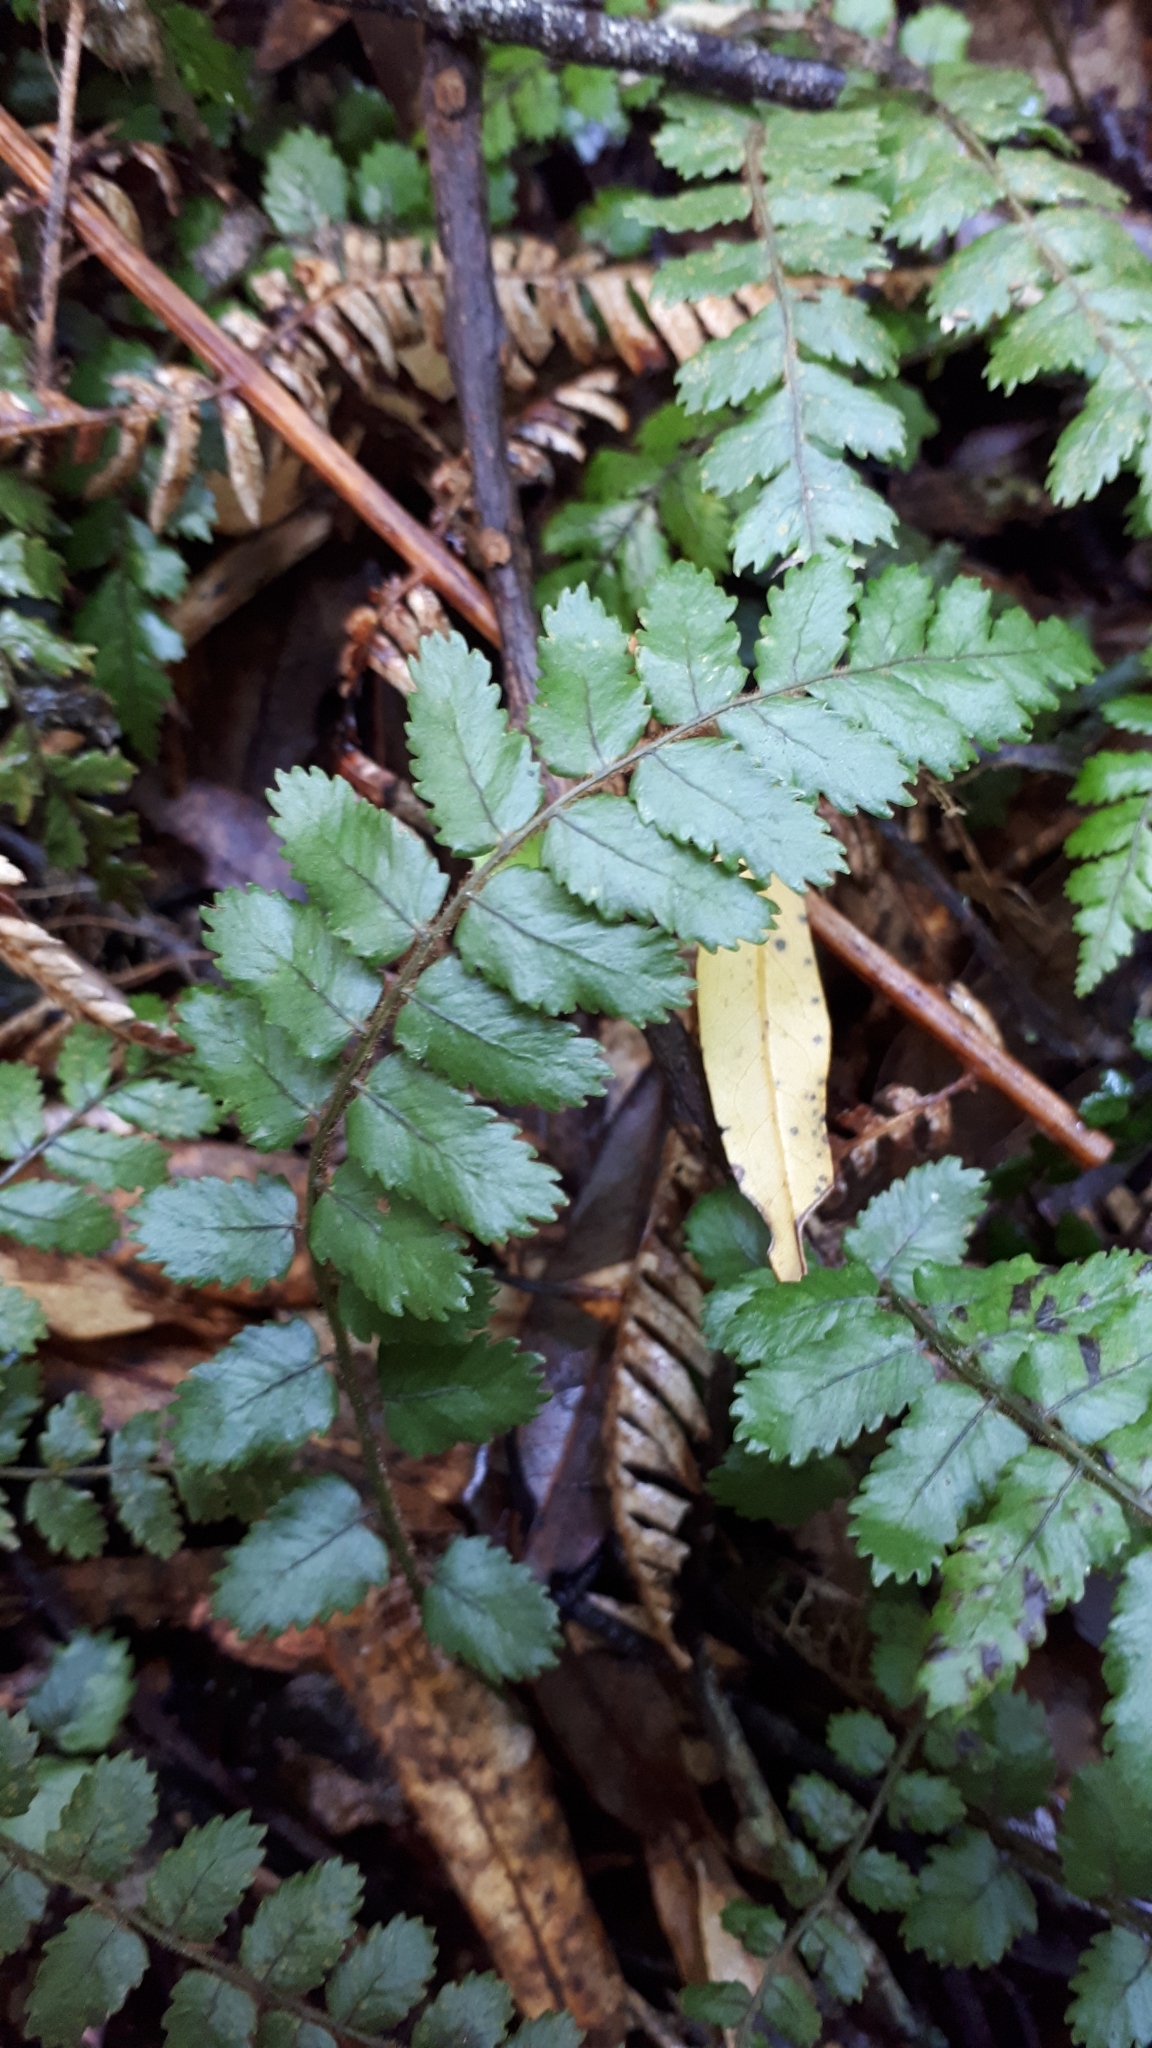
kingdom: Plantae
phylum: Tracheophyta
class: Polypodiopsida
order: Polypodiales
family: Blechnaceae
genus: Icarus
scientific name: Icarus filiformis
